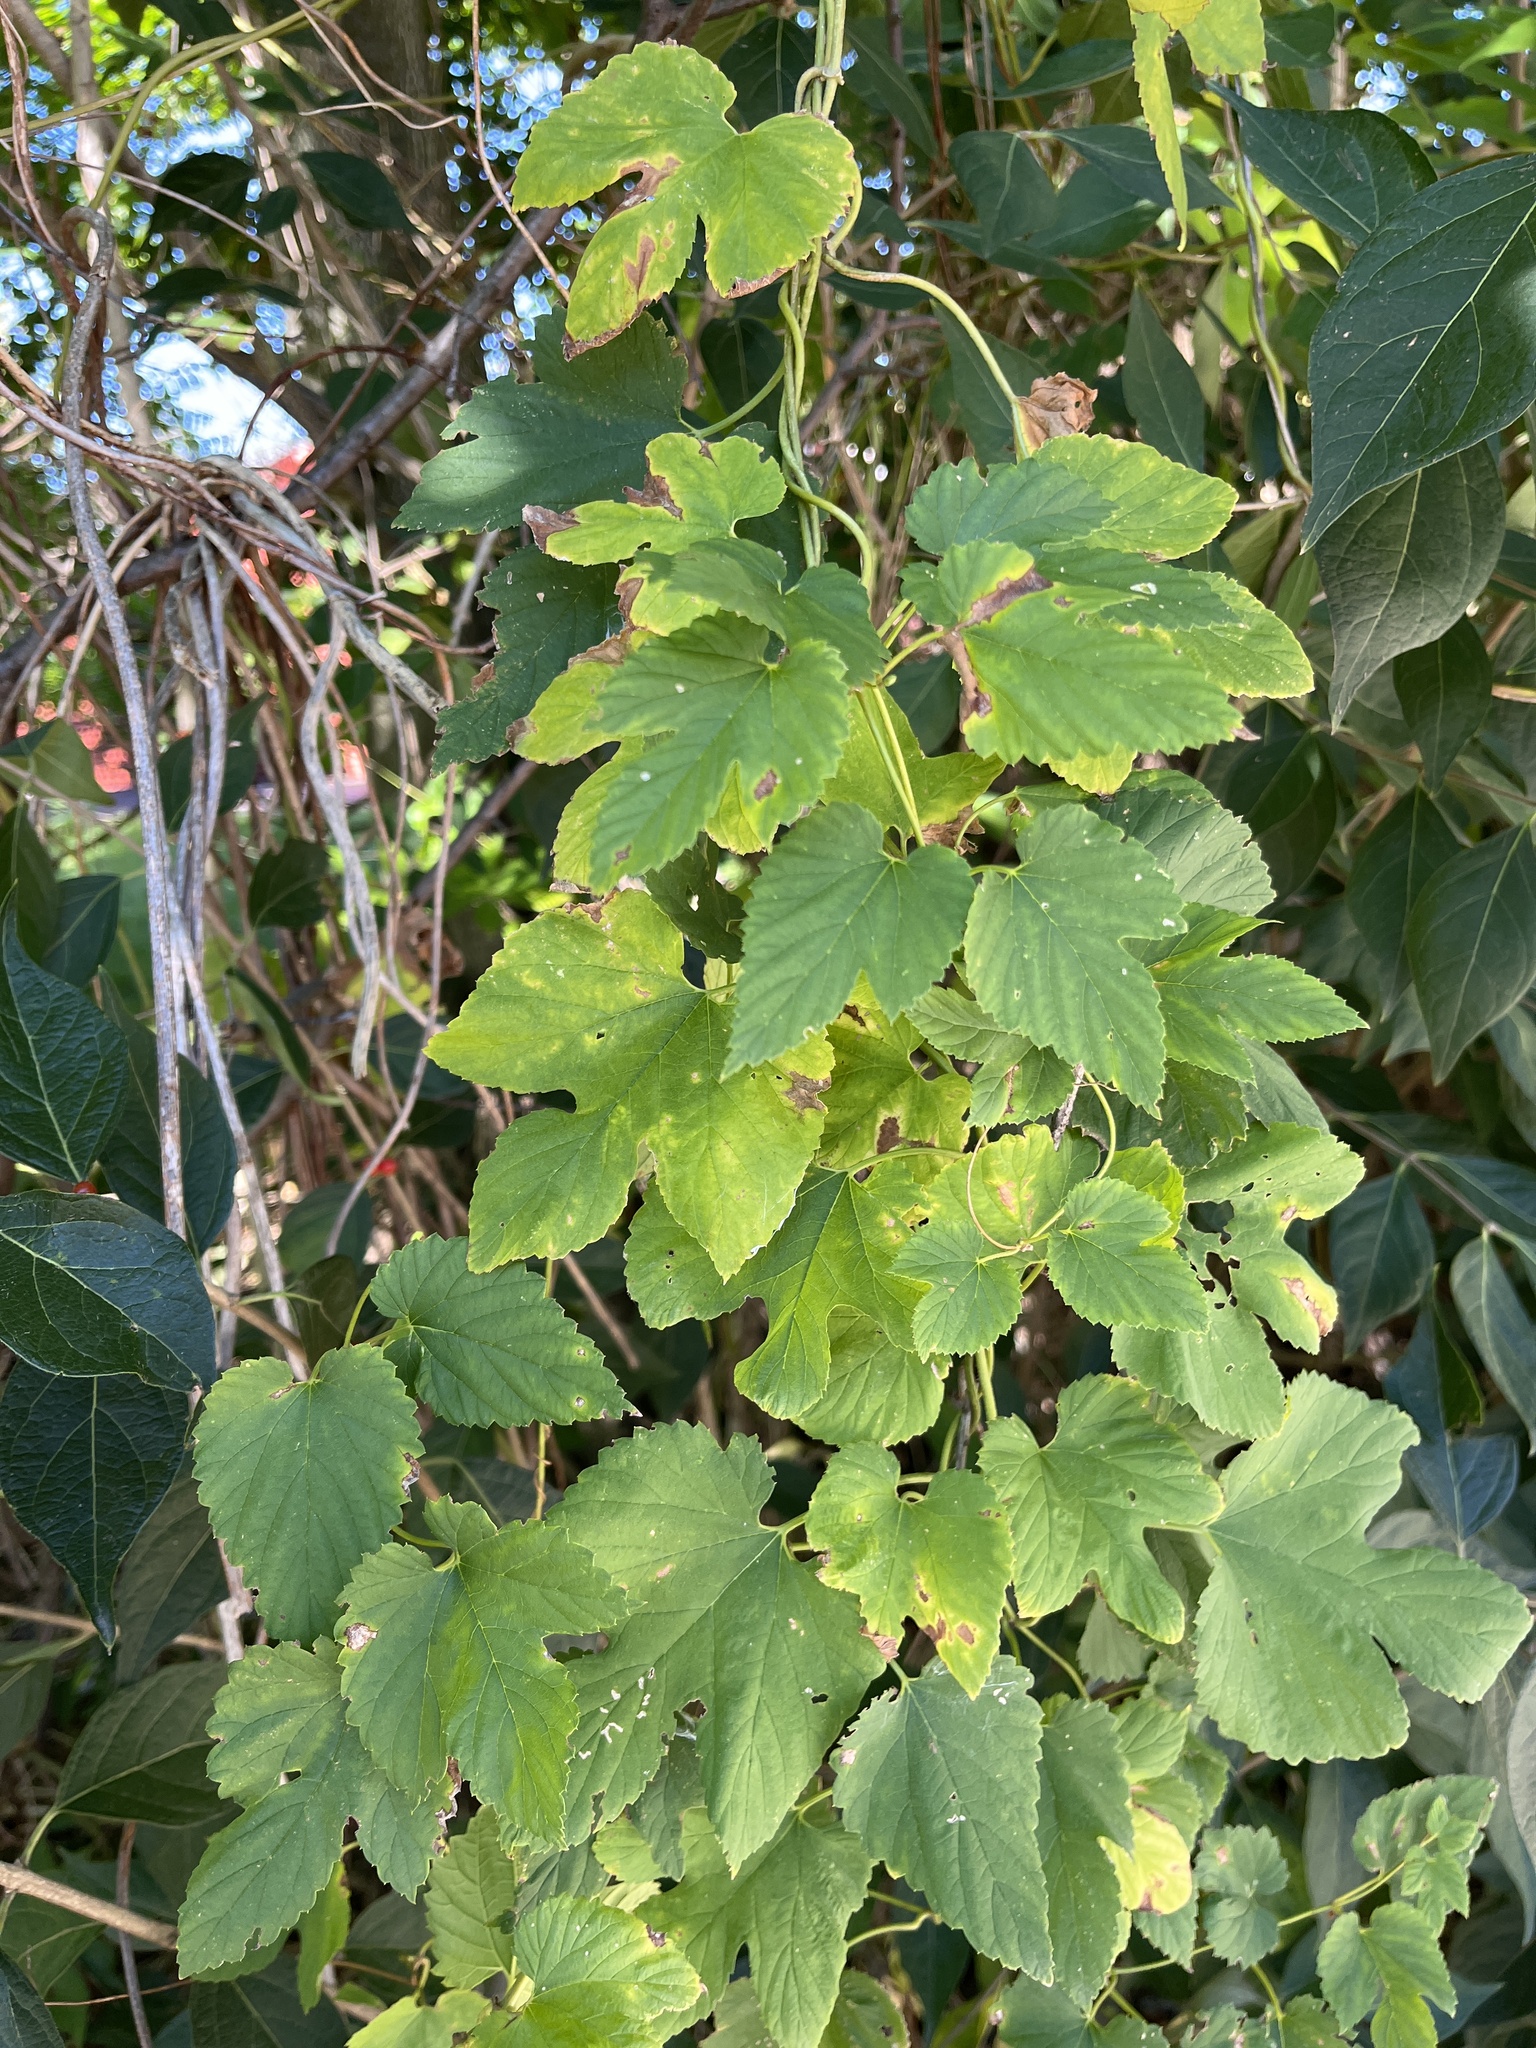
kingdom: Plantae
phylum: Tracheophyta
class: Magnoliopsida
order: Rosales
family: Cannabaceae
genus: Humulus
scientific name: Humulus lupulus
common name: Hop
